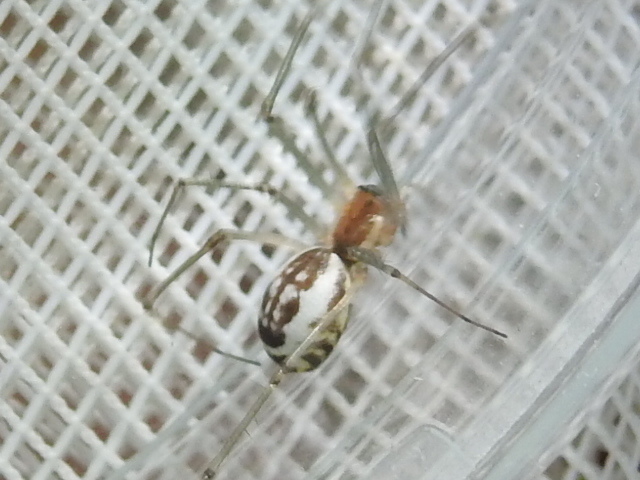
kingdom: Animalia
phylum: Arthropoda
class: Arachnida
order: Araneae
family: Linyphiidae
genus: Neriene
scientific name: Neriene radiata
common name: Filmy dome spider
